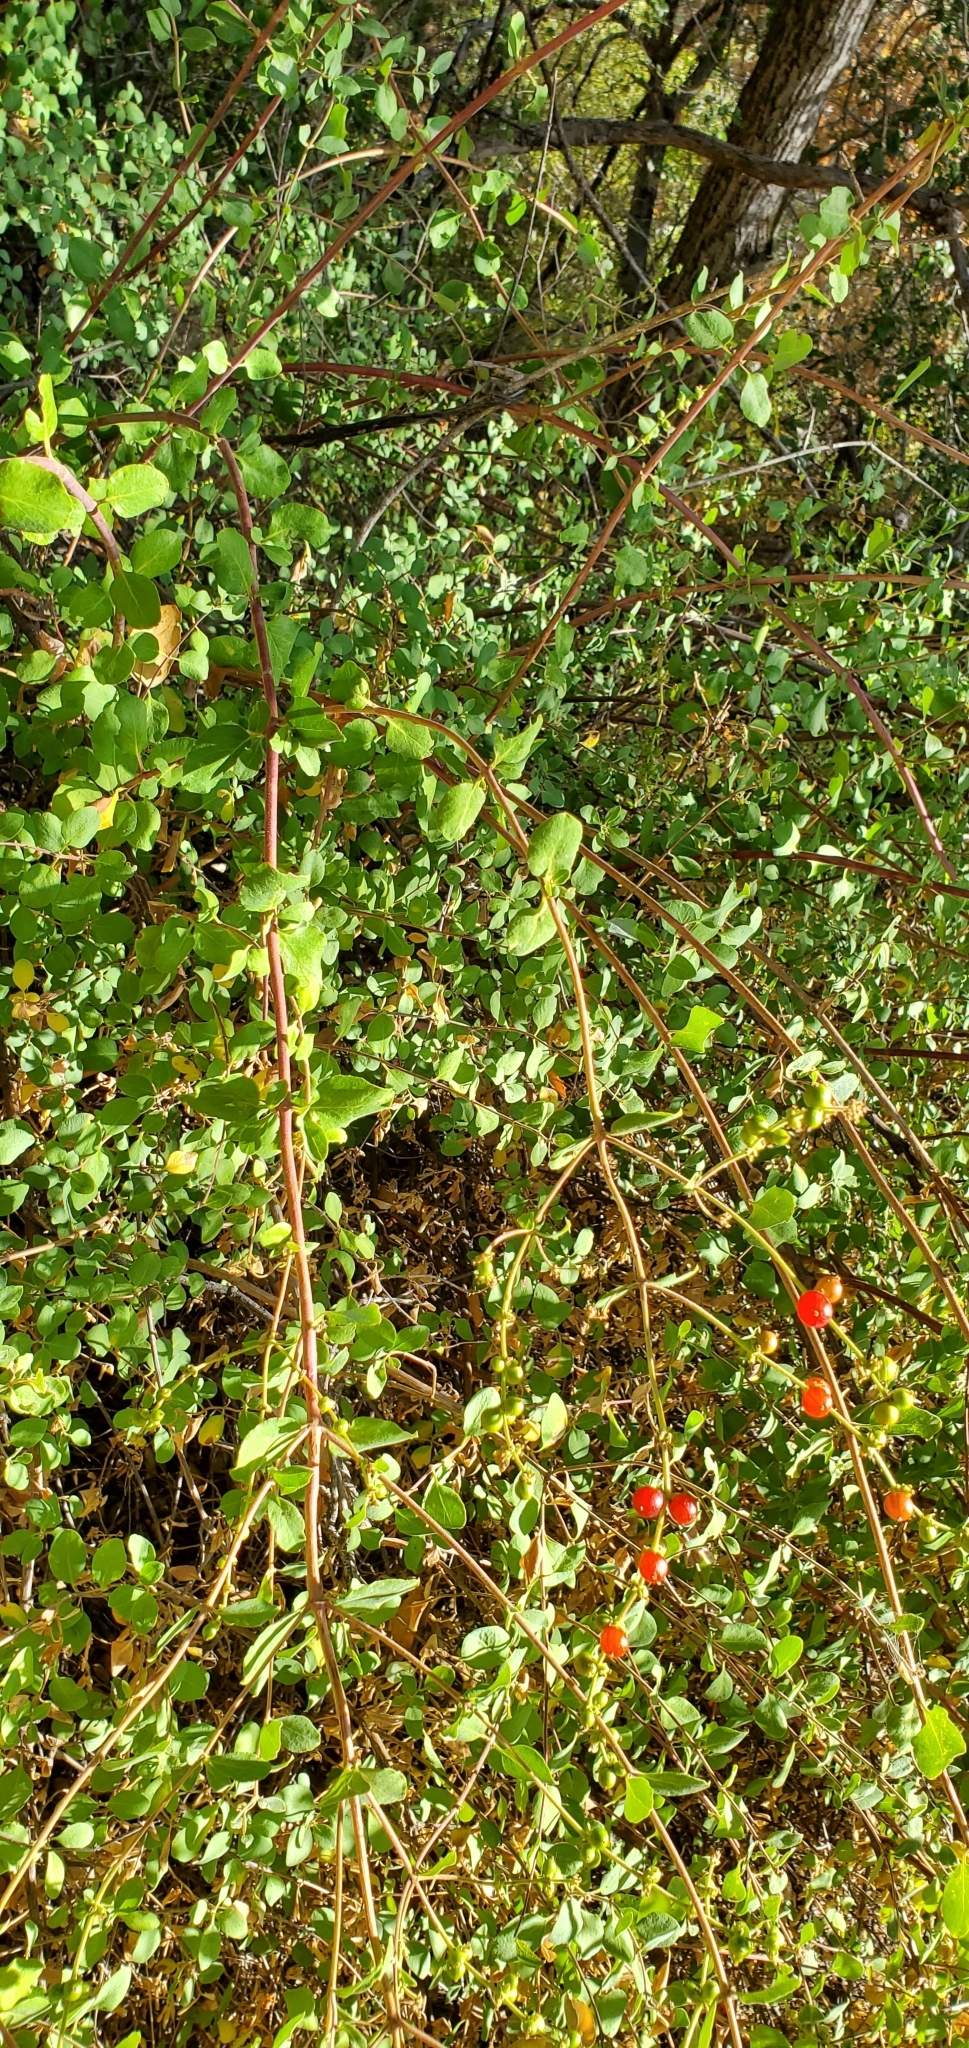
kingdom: Plantae
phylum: Tracheophyta
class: Magnoliopsida
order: Dipsacales
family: Caprifoliaceae
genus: Lonicera
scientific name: Lonicera subspicata
